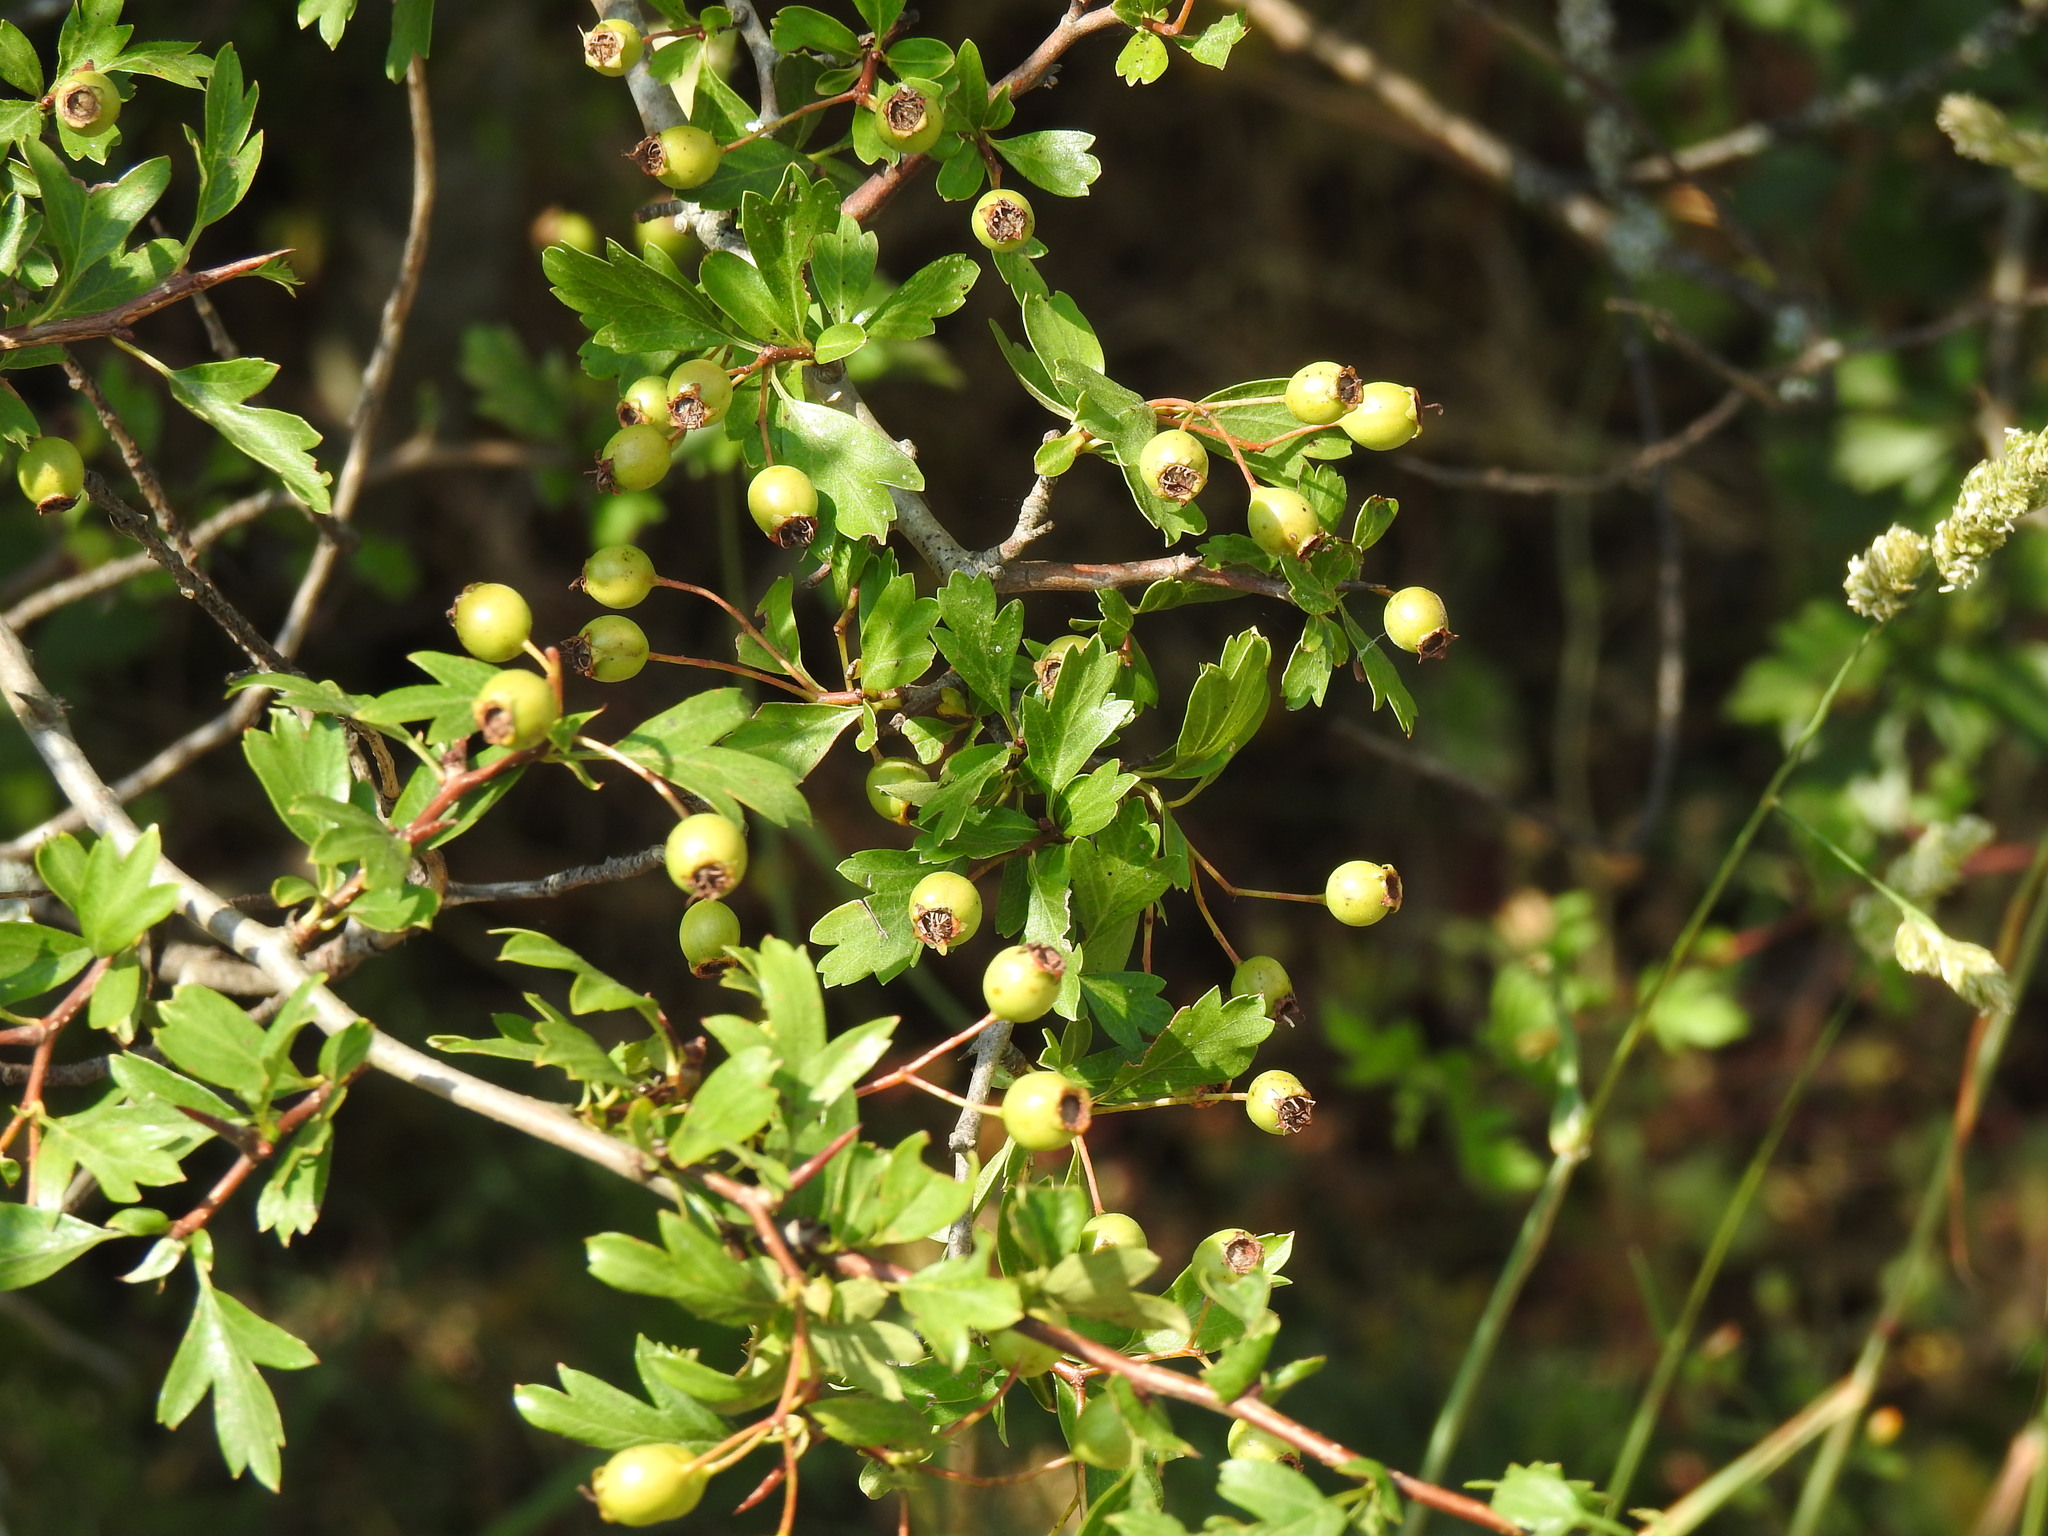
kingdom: Plantae
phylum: Tracheophyta
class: Magnoliopsida
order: Rosales
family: Rosaceae
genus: Crataegus
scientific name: Crataegus monogyna
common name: Hawthorn
